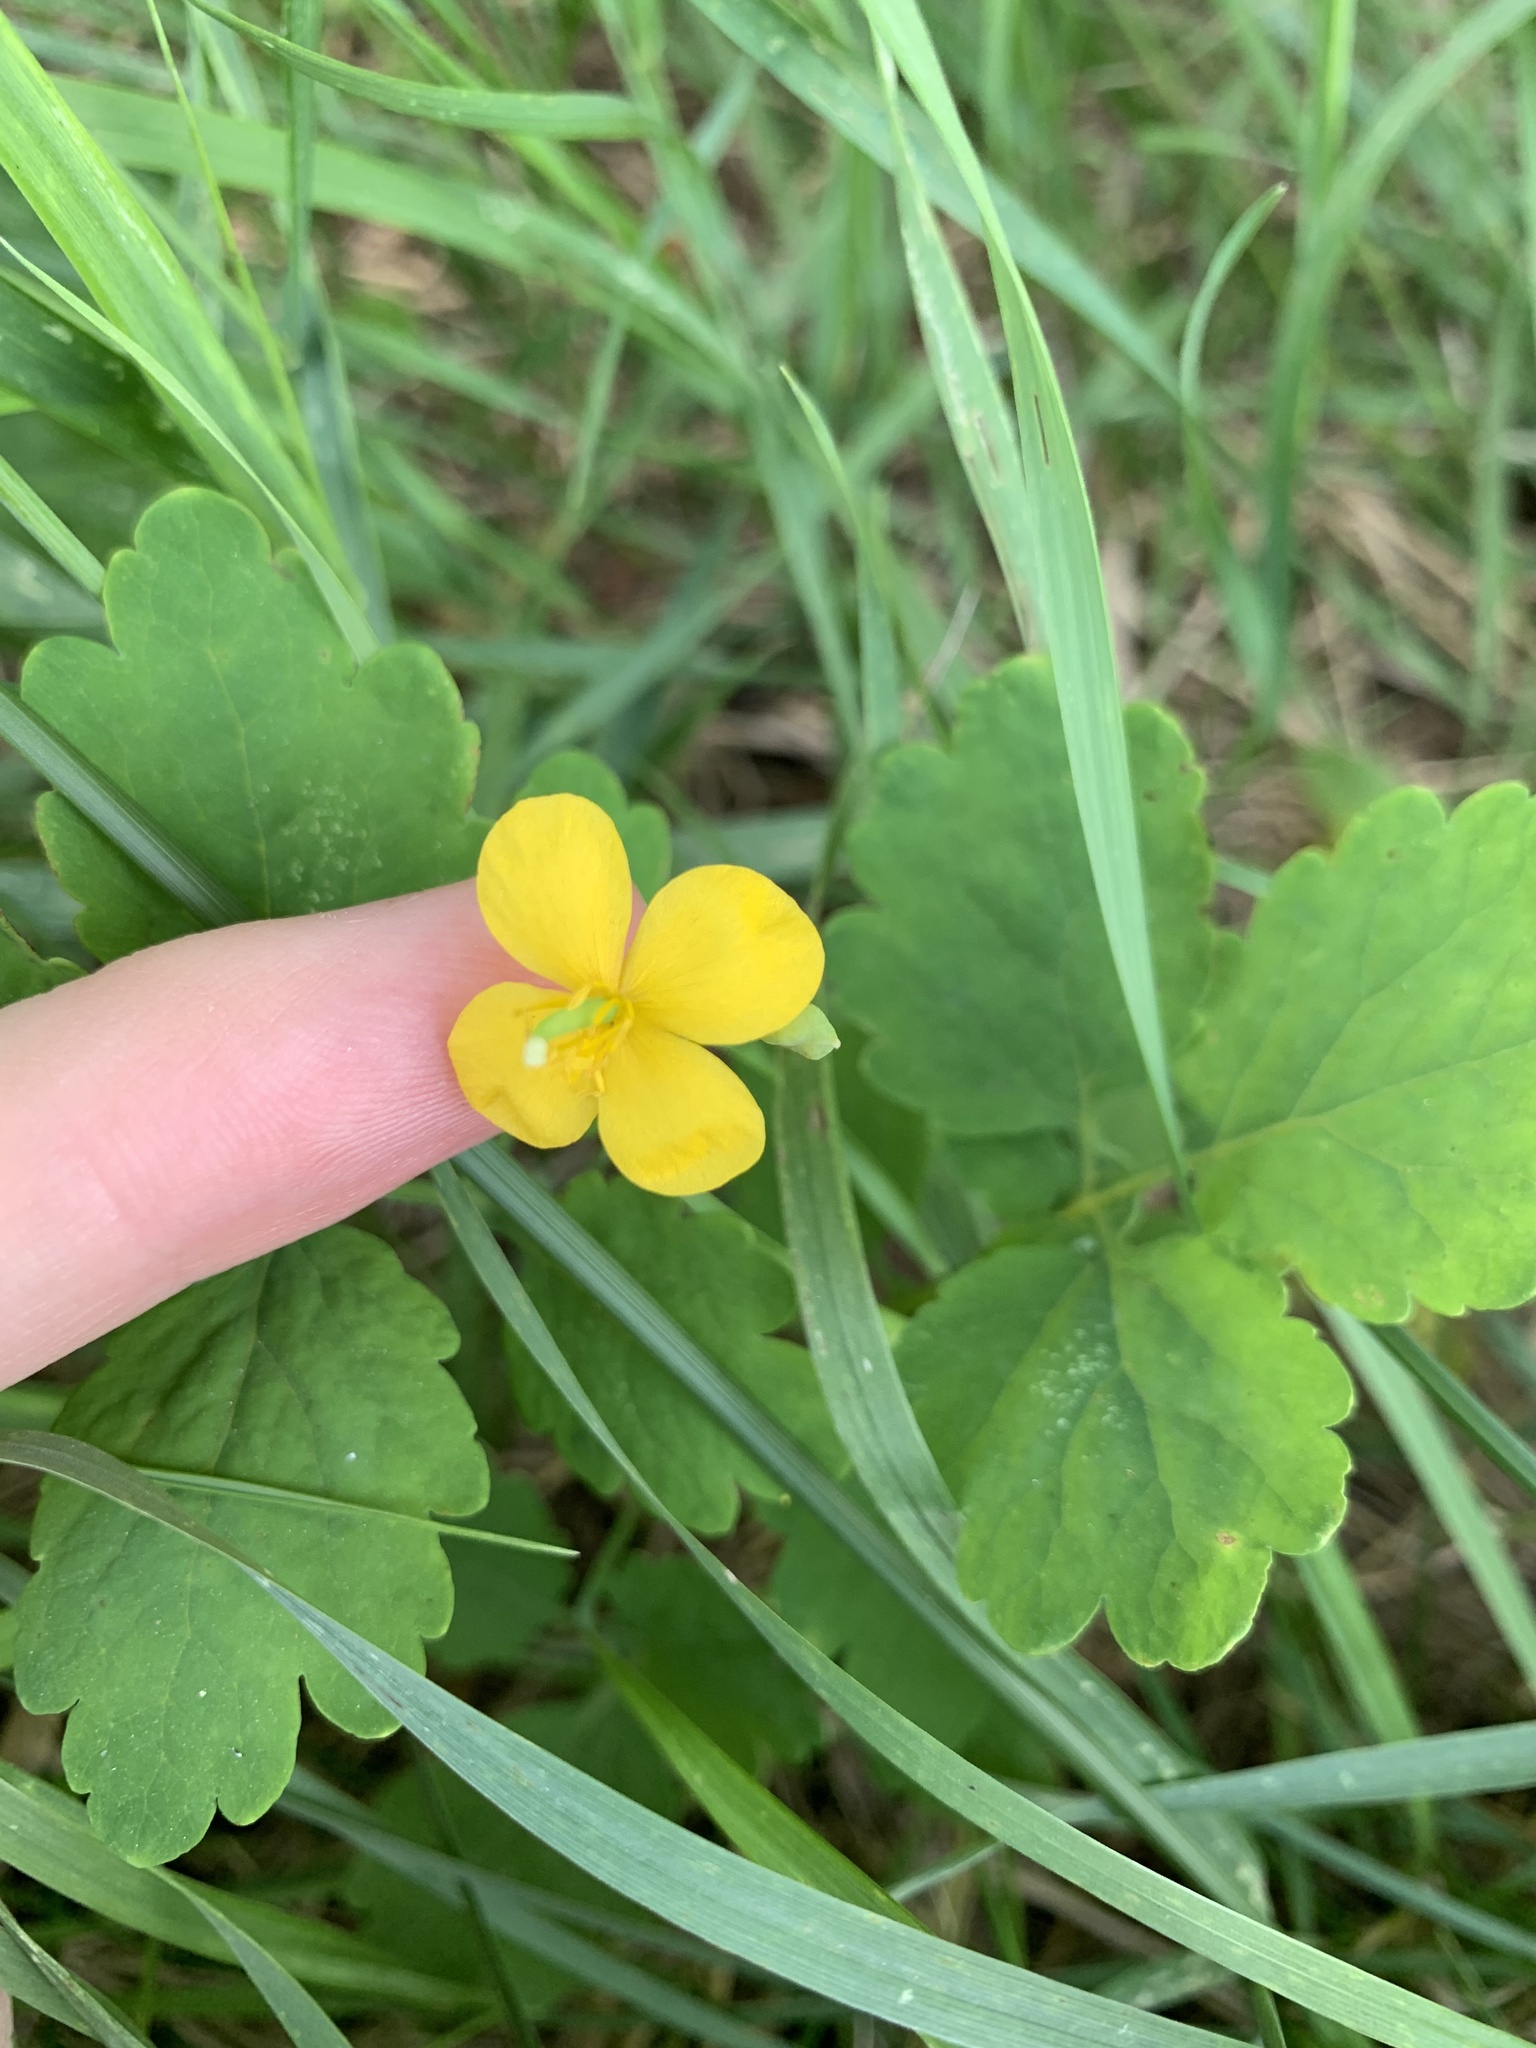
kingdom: Plantae
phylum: Tracheophyta
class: Magnoliopsida
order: Ranunculales
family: Papaveraceae
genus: Chelidonium
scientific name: Chelidonium majus
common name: Greater celandine
